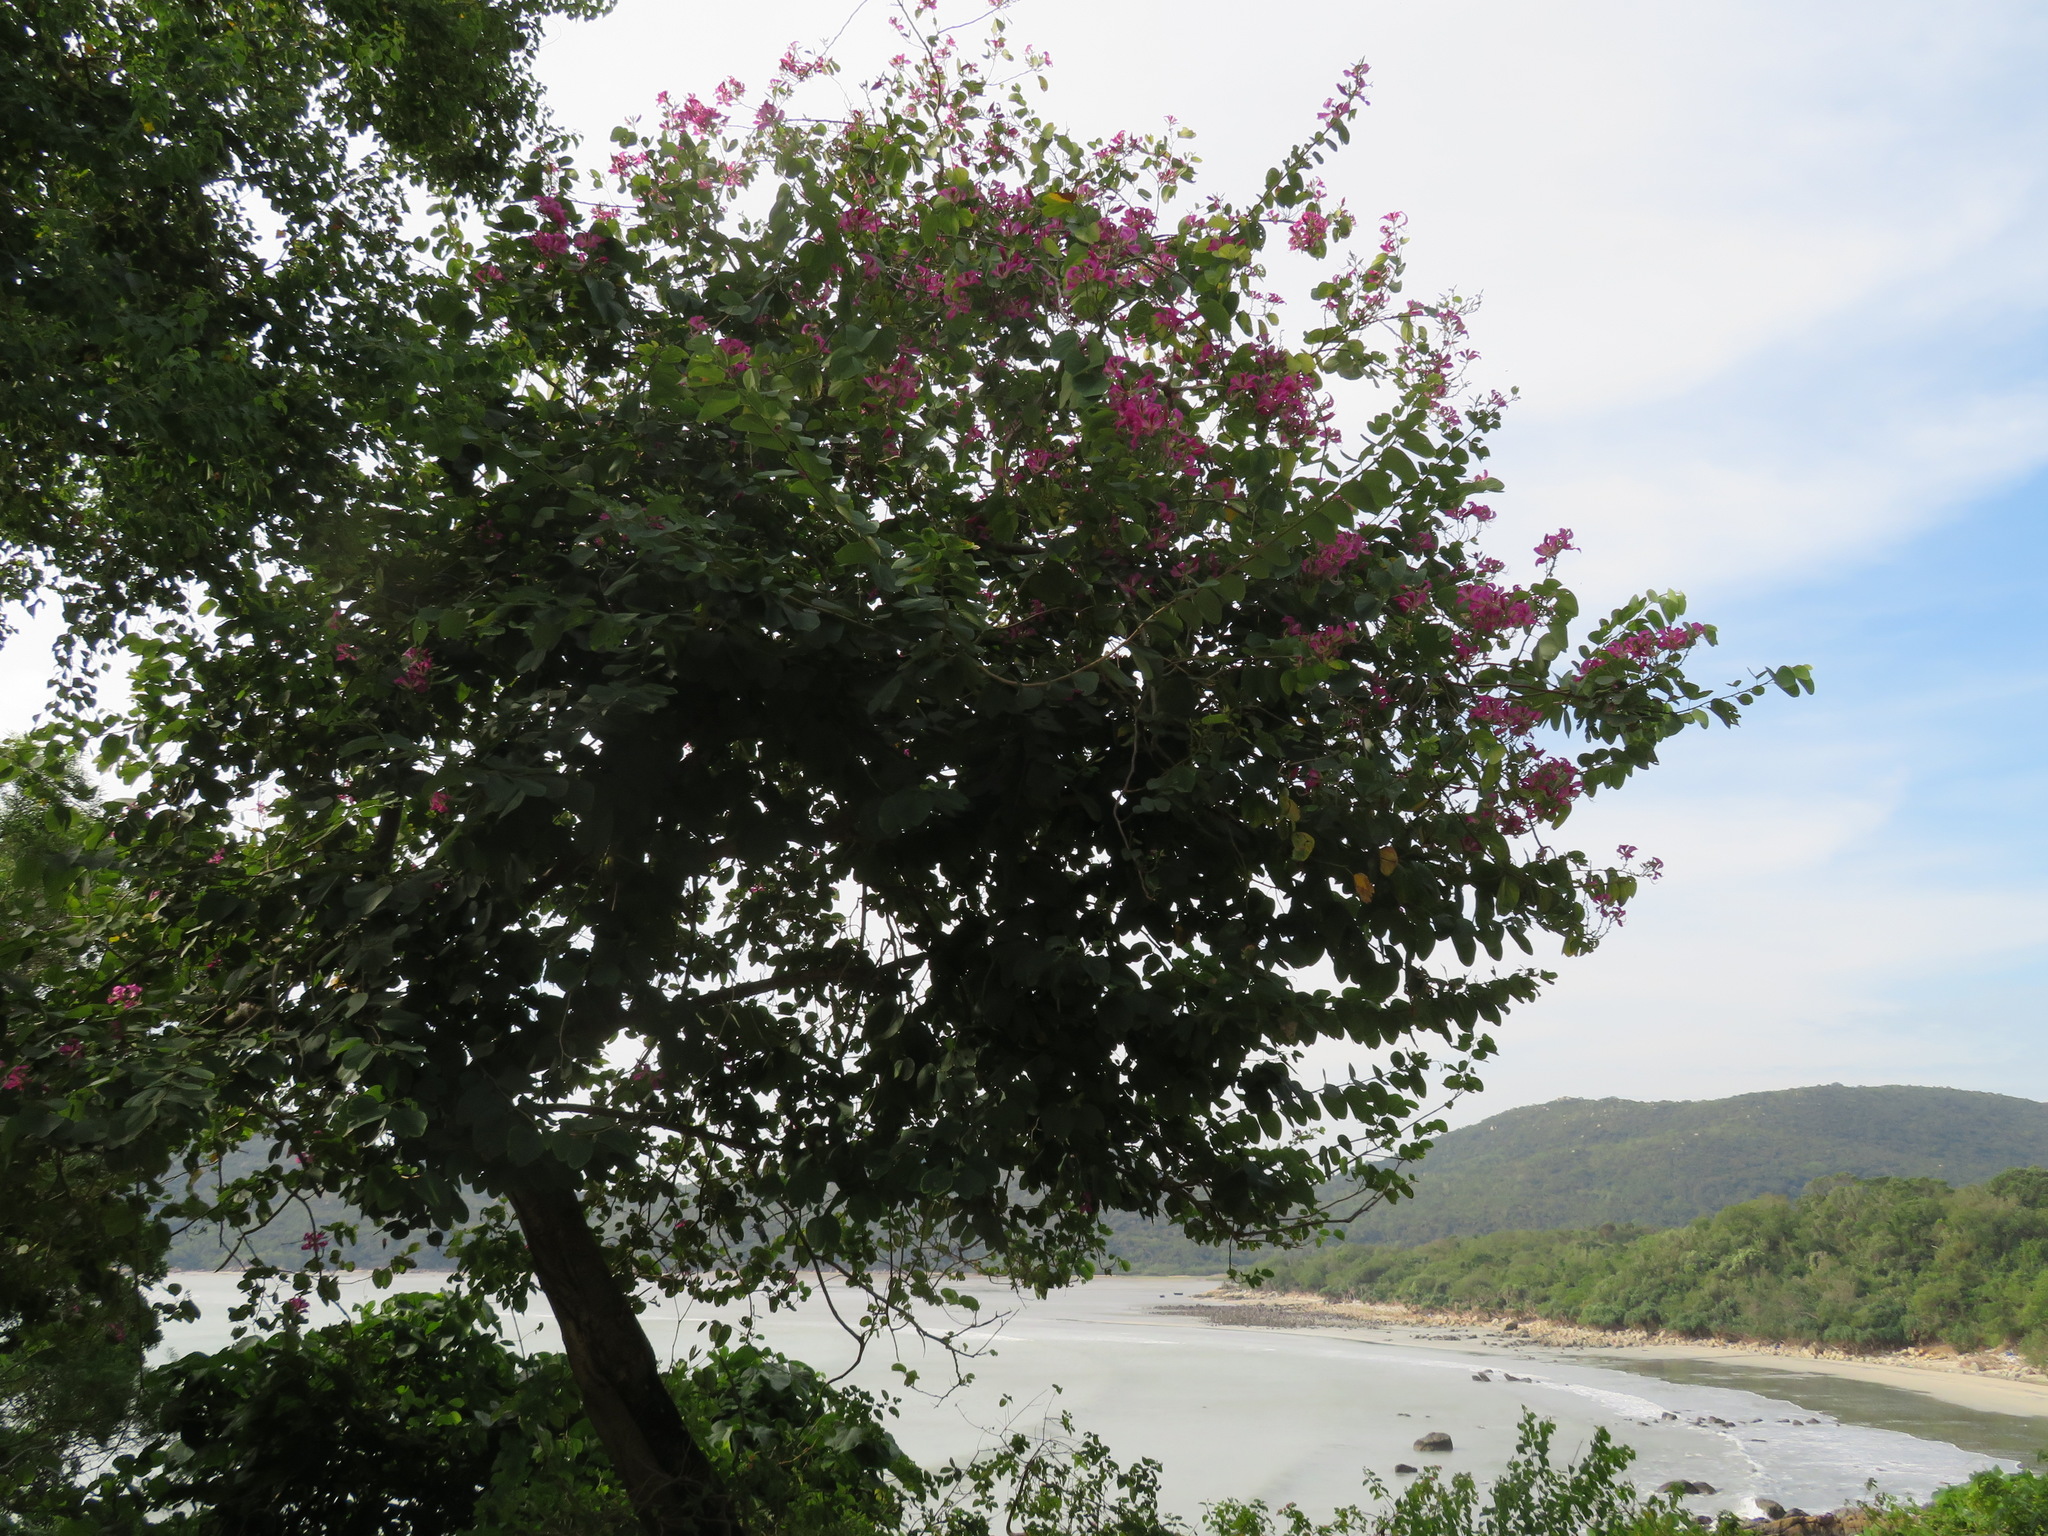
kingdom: Plantae
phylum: Tracheophyta
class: Magnoliopsida
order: Fabales
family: Fabaceae
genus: Bauhinia
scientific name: Bauhinia blakeana
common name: Bauhinia
